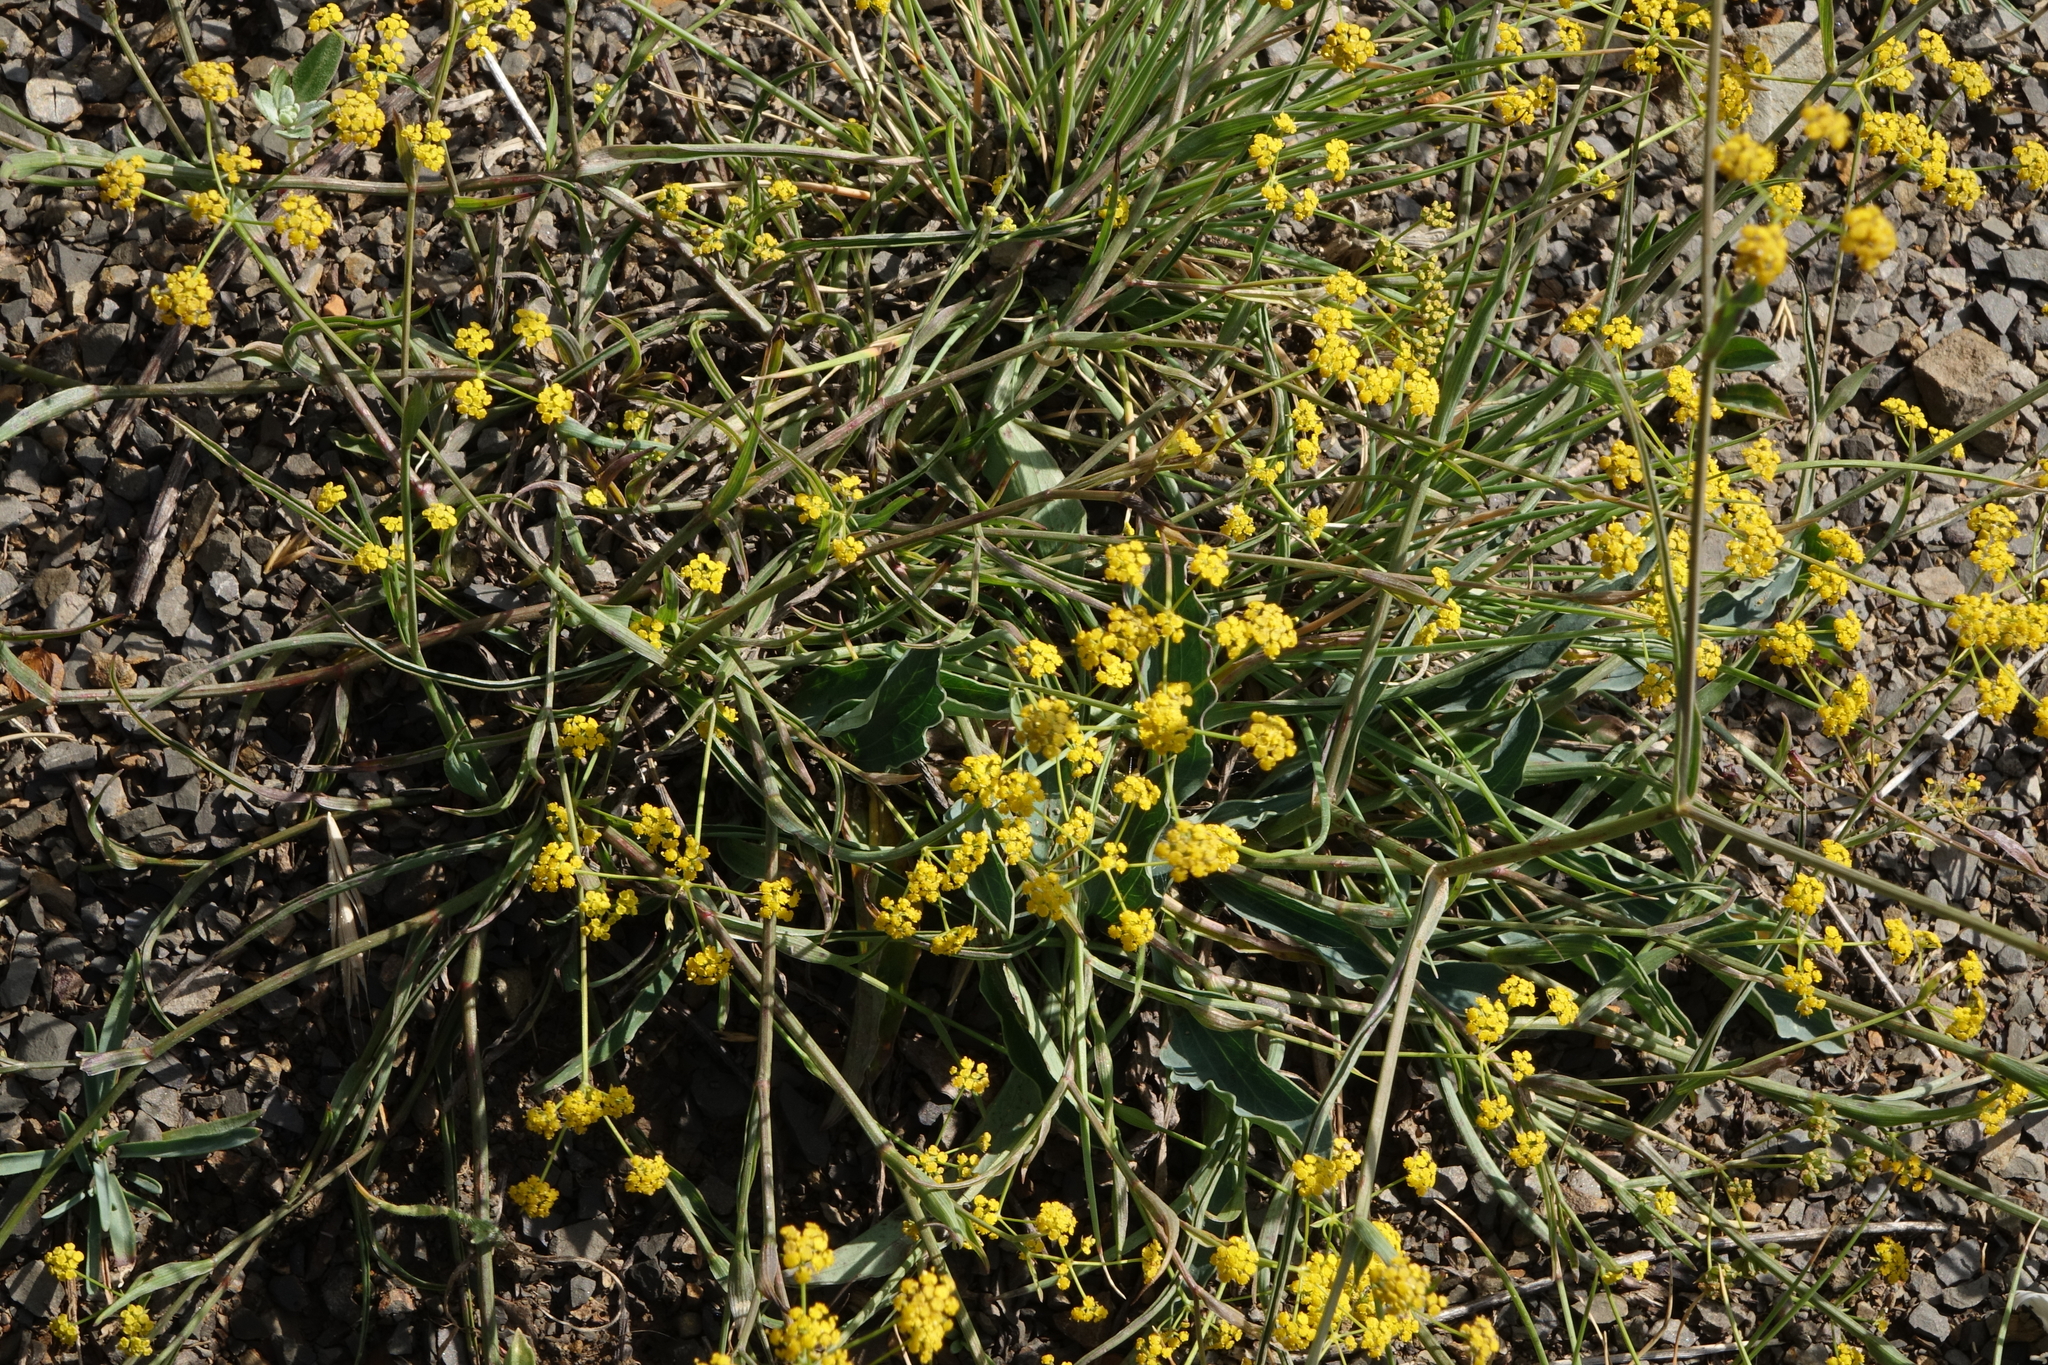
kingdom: Plantae
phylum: Tracheophyta
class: Magnoliopsida
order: Apiales
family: Apiaceae
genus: Bupleurum
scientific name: Bupleurum polyphyllum
